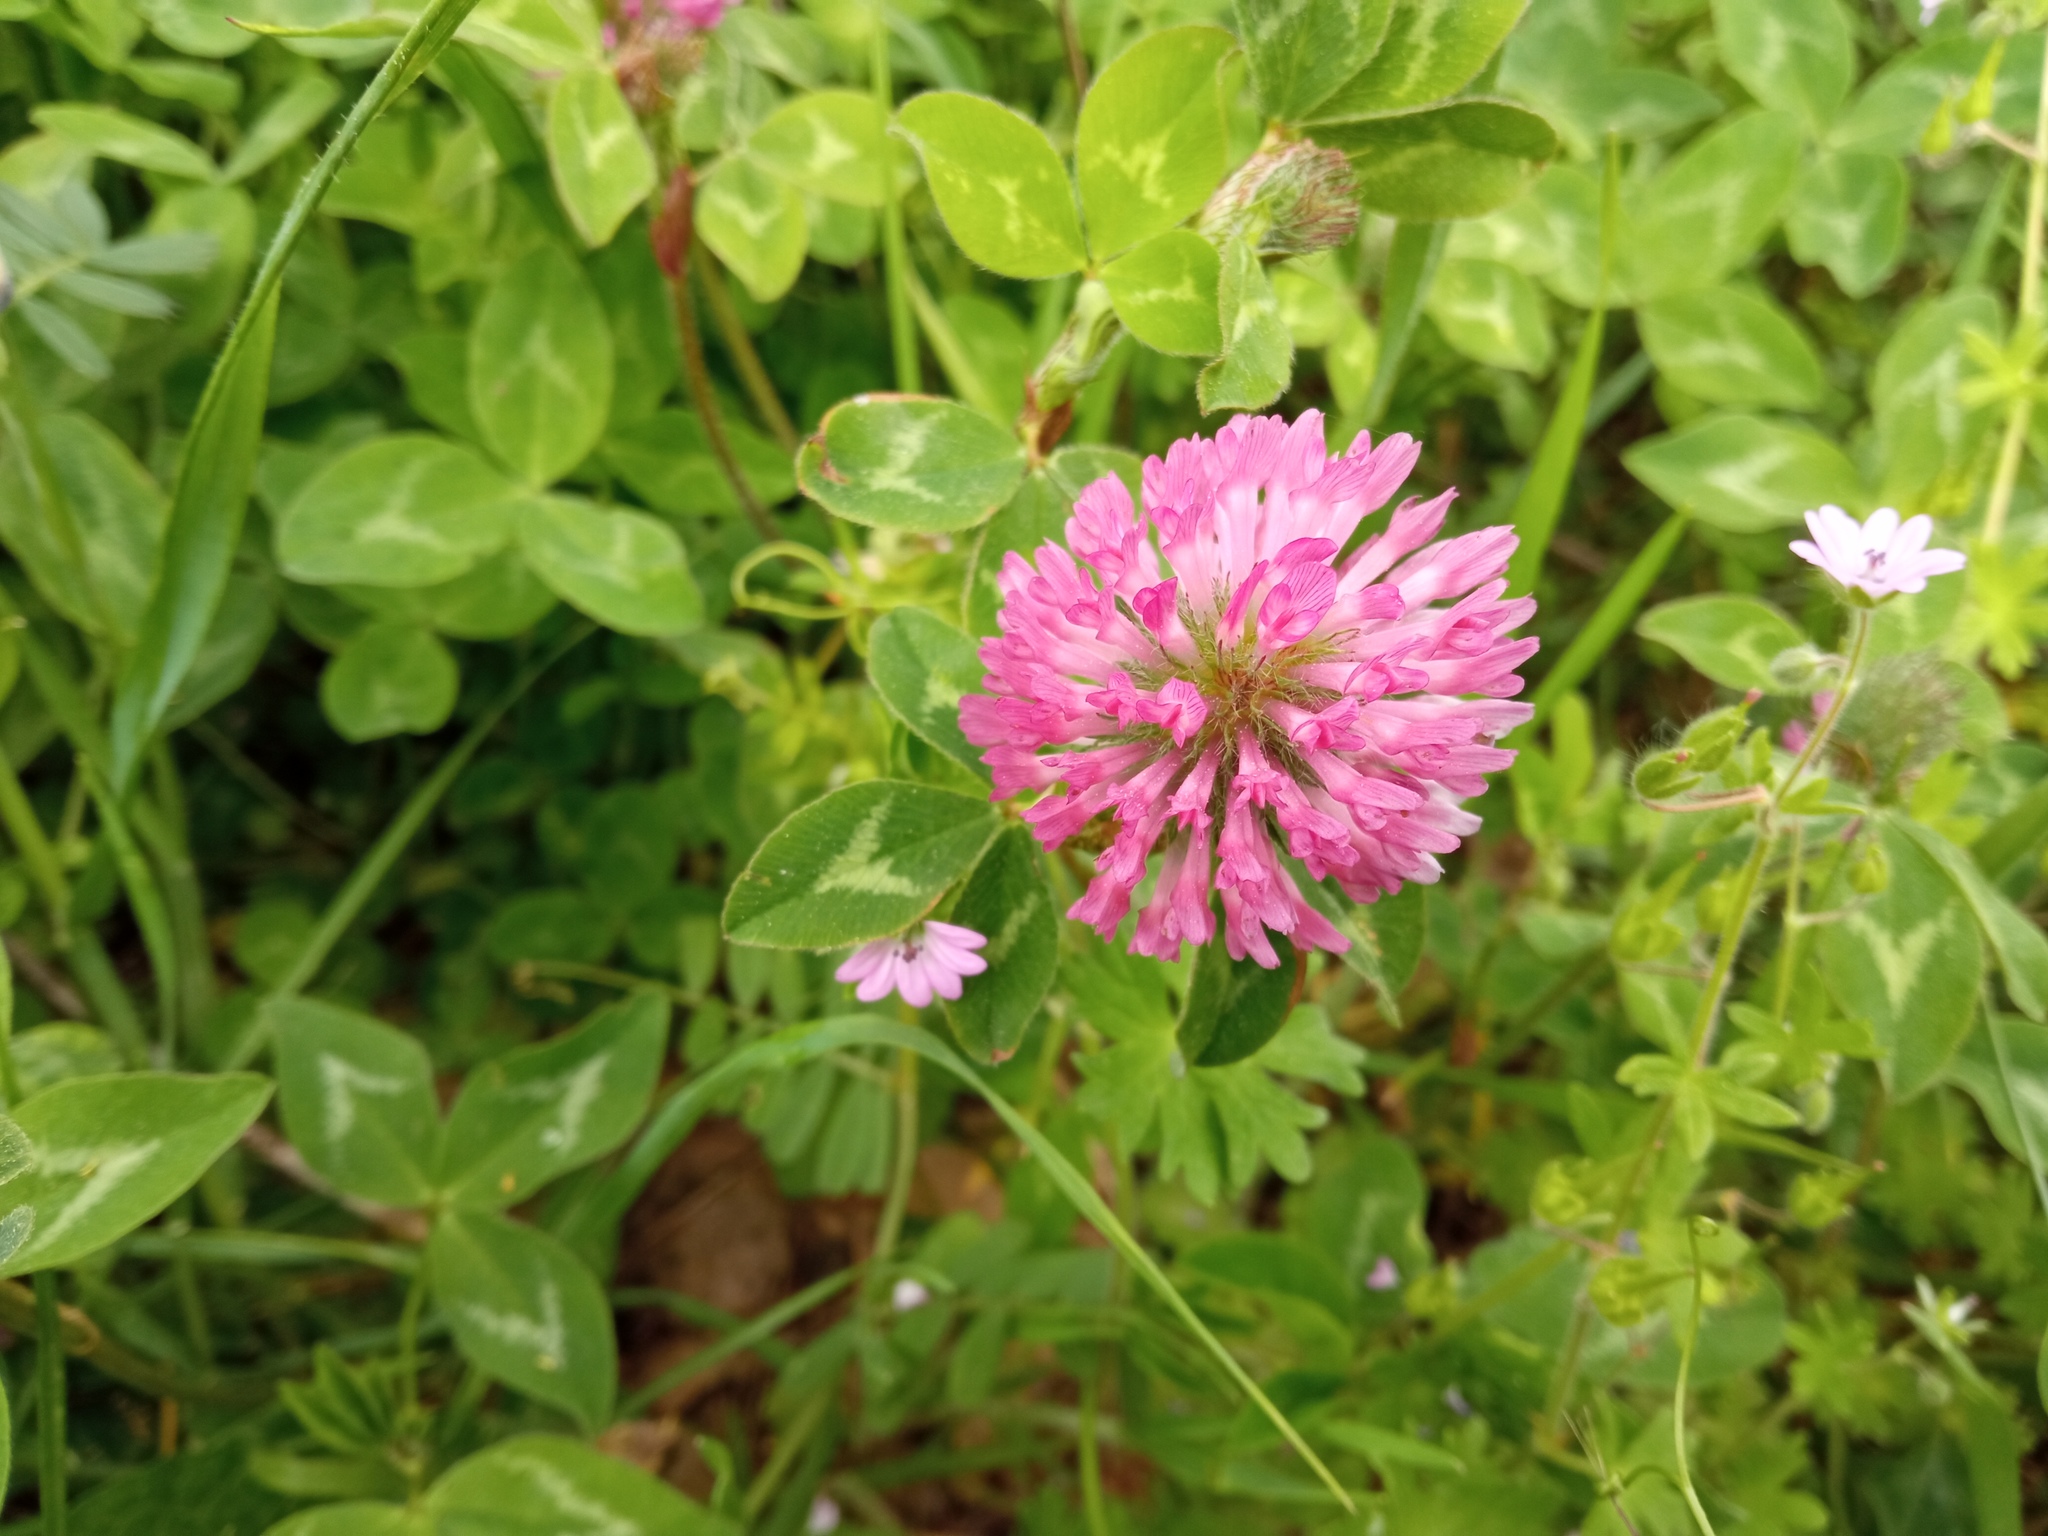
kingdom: Plantae
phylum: Tracheophyta
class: Magnoliopsida
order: Fabales
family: Fabaceae
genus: Trifolium
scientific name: Trifolium pratense
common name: Red clover
